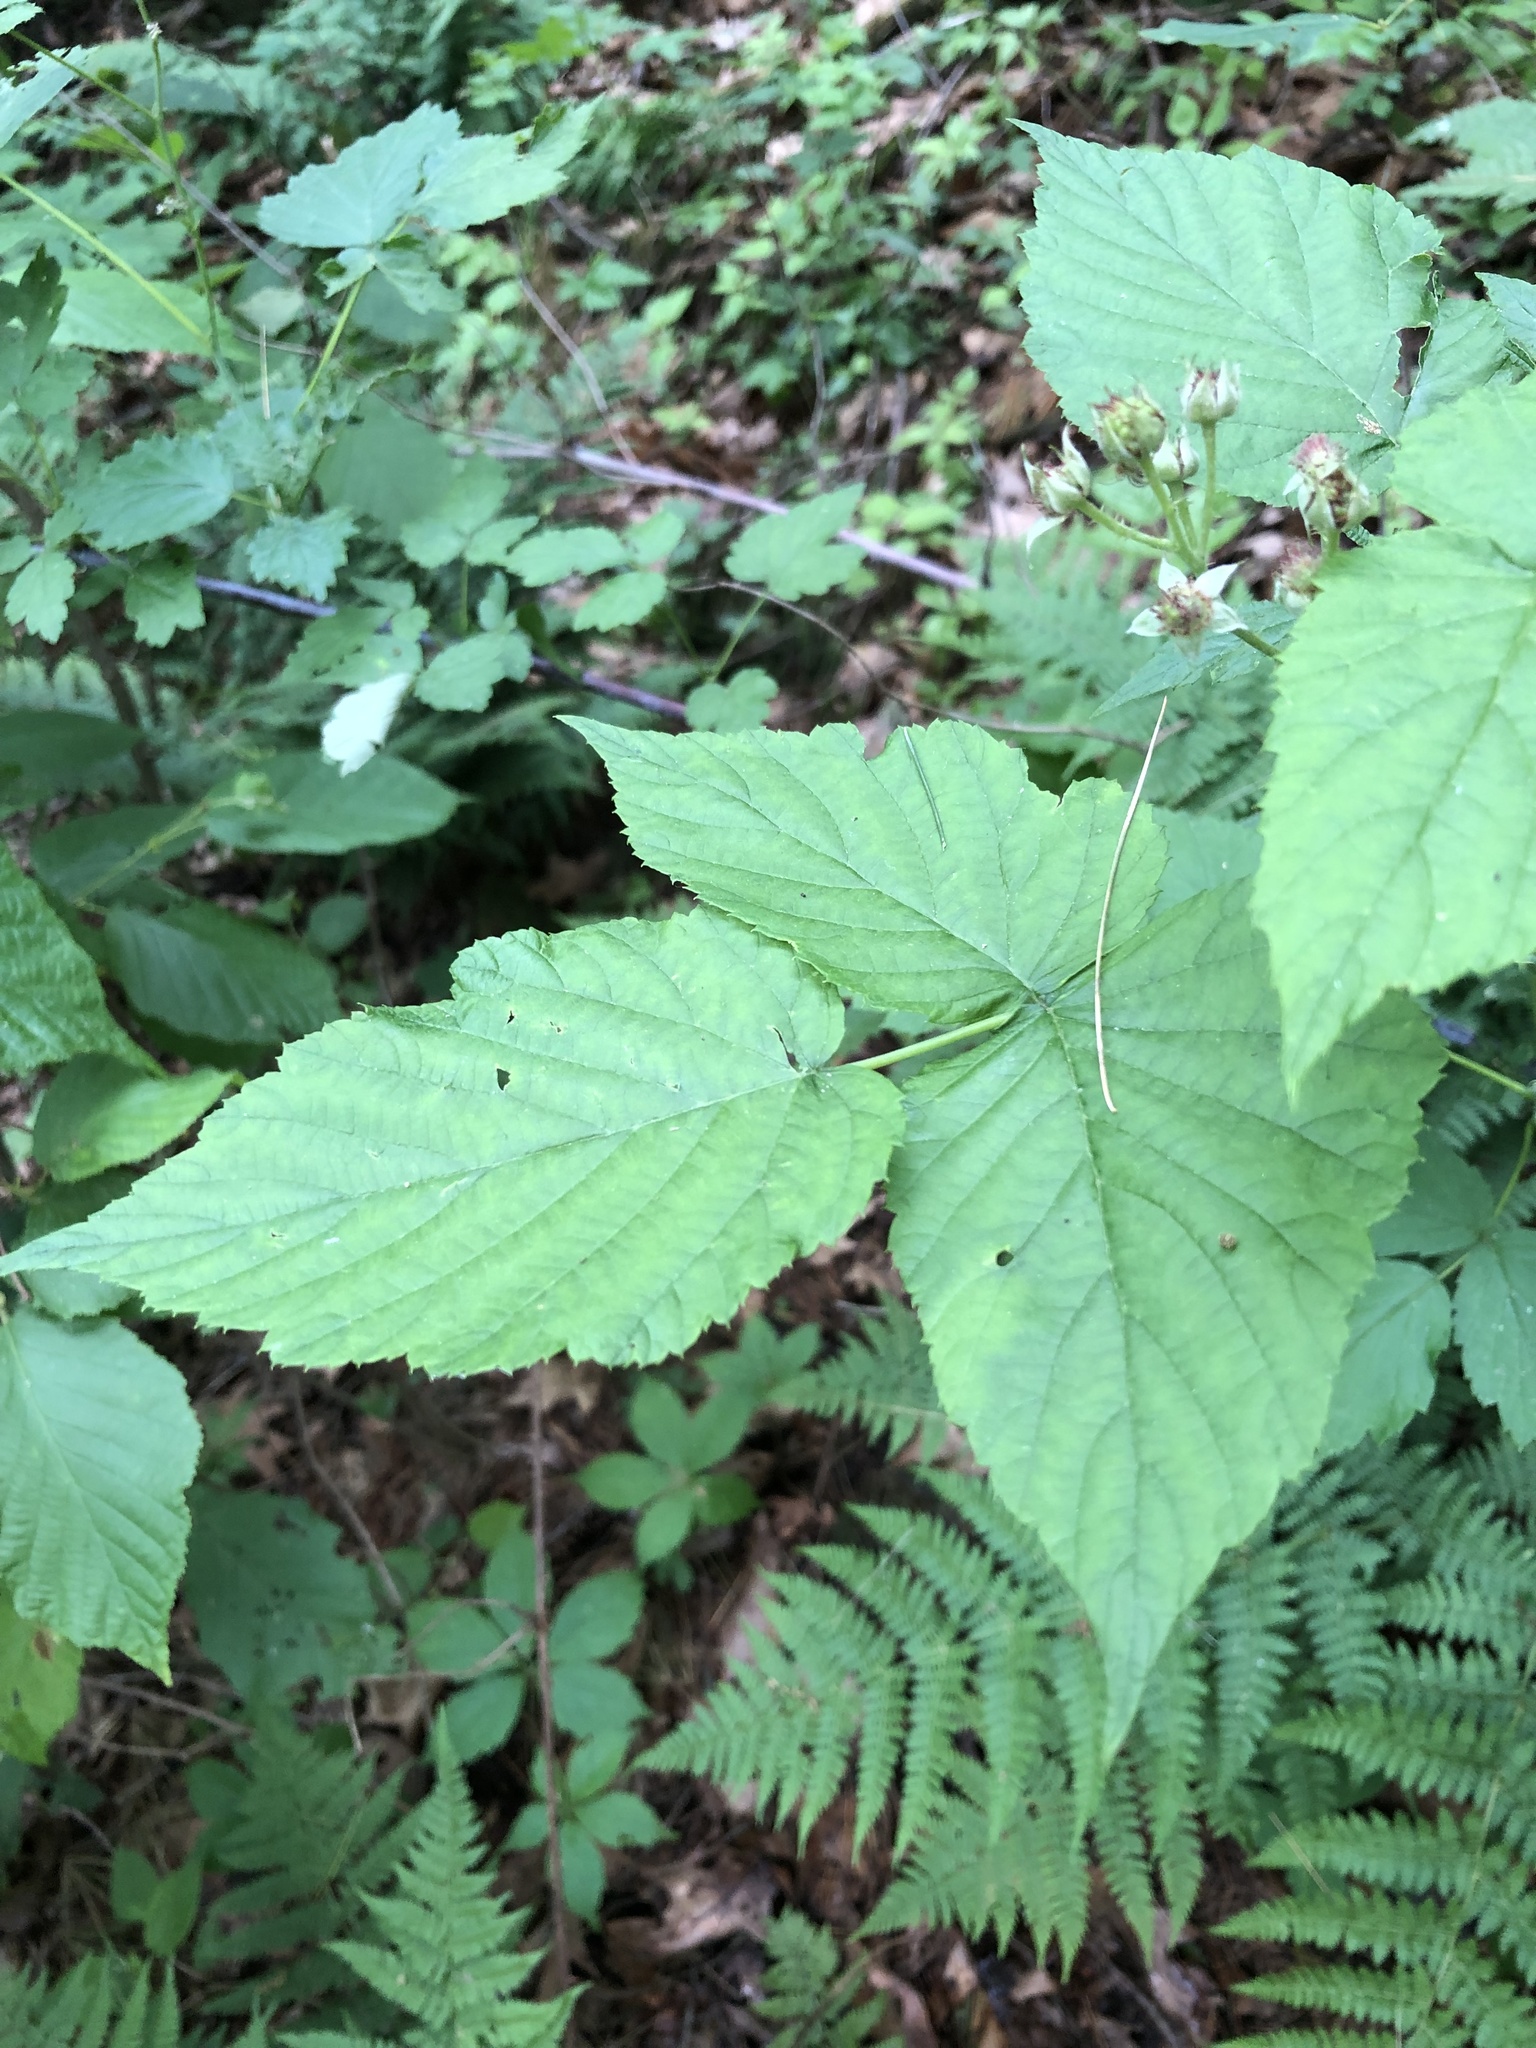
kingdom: Plantae
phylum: Tracheophyta
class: Magnoliopsida
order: Rosales
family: Rosaceae
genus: Rubus
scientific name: Rubus occidentalis
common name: Black raspberry
